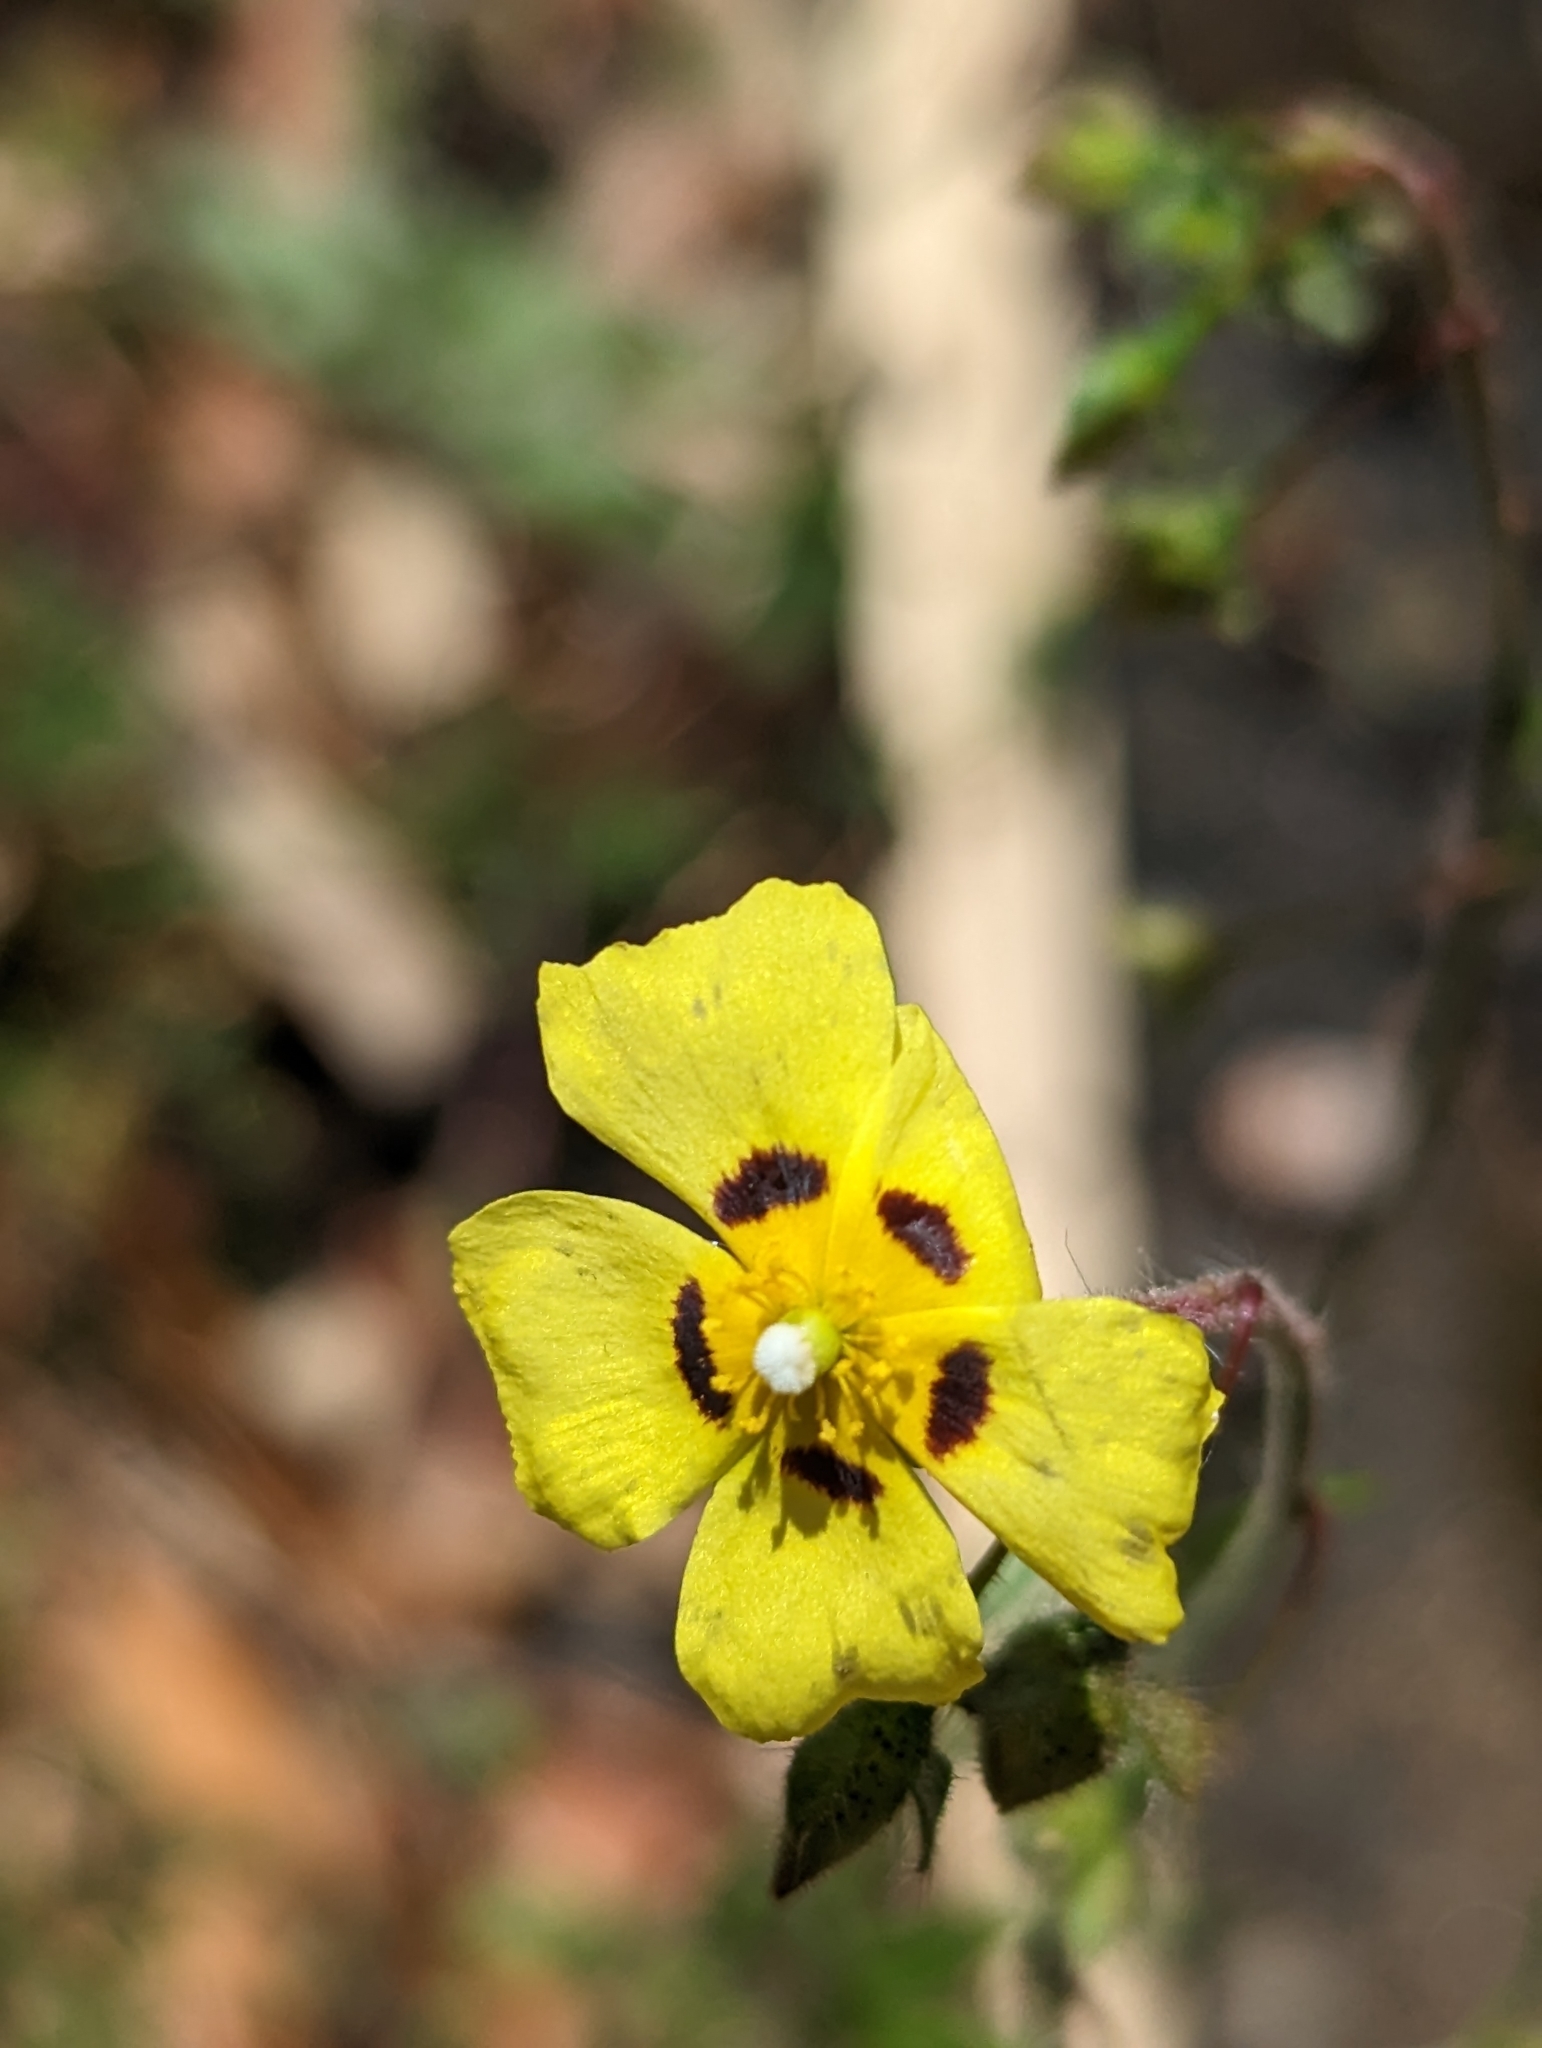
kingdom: Plantae
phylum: Tracheophyta
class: Magnoliopsida
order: Malvales
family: Cistaceae
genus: Tuberaria
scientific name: Tuberaria guttata
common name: Spotted rock-rose
